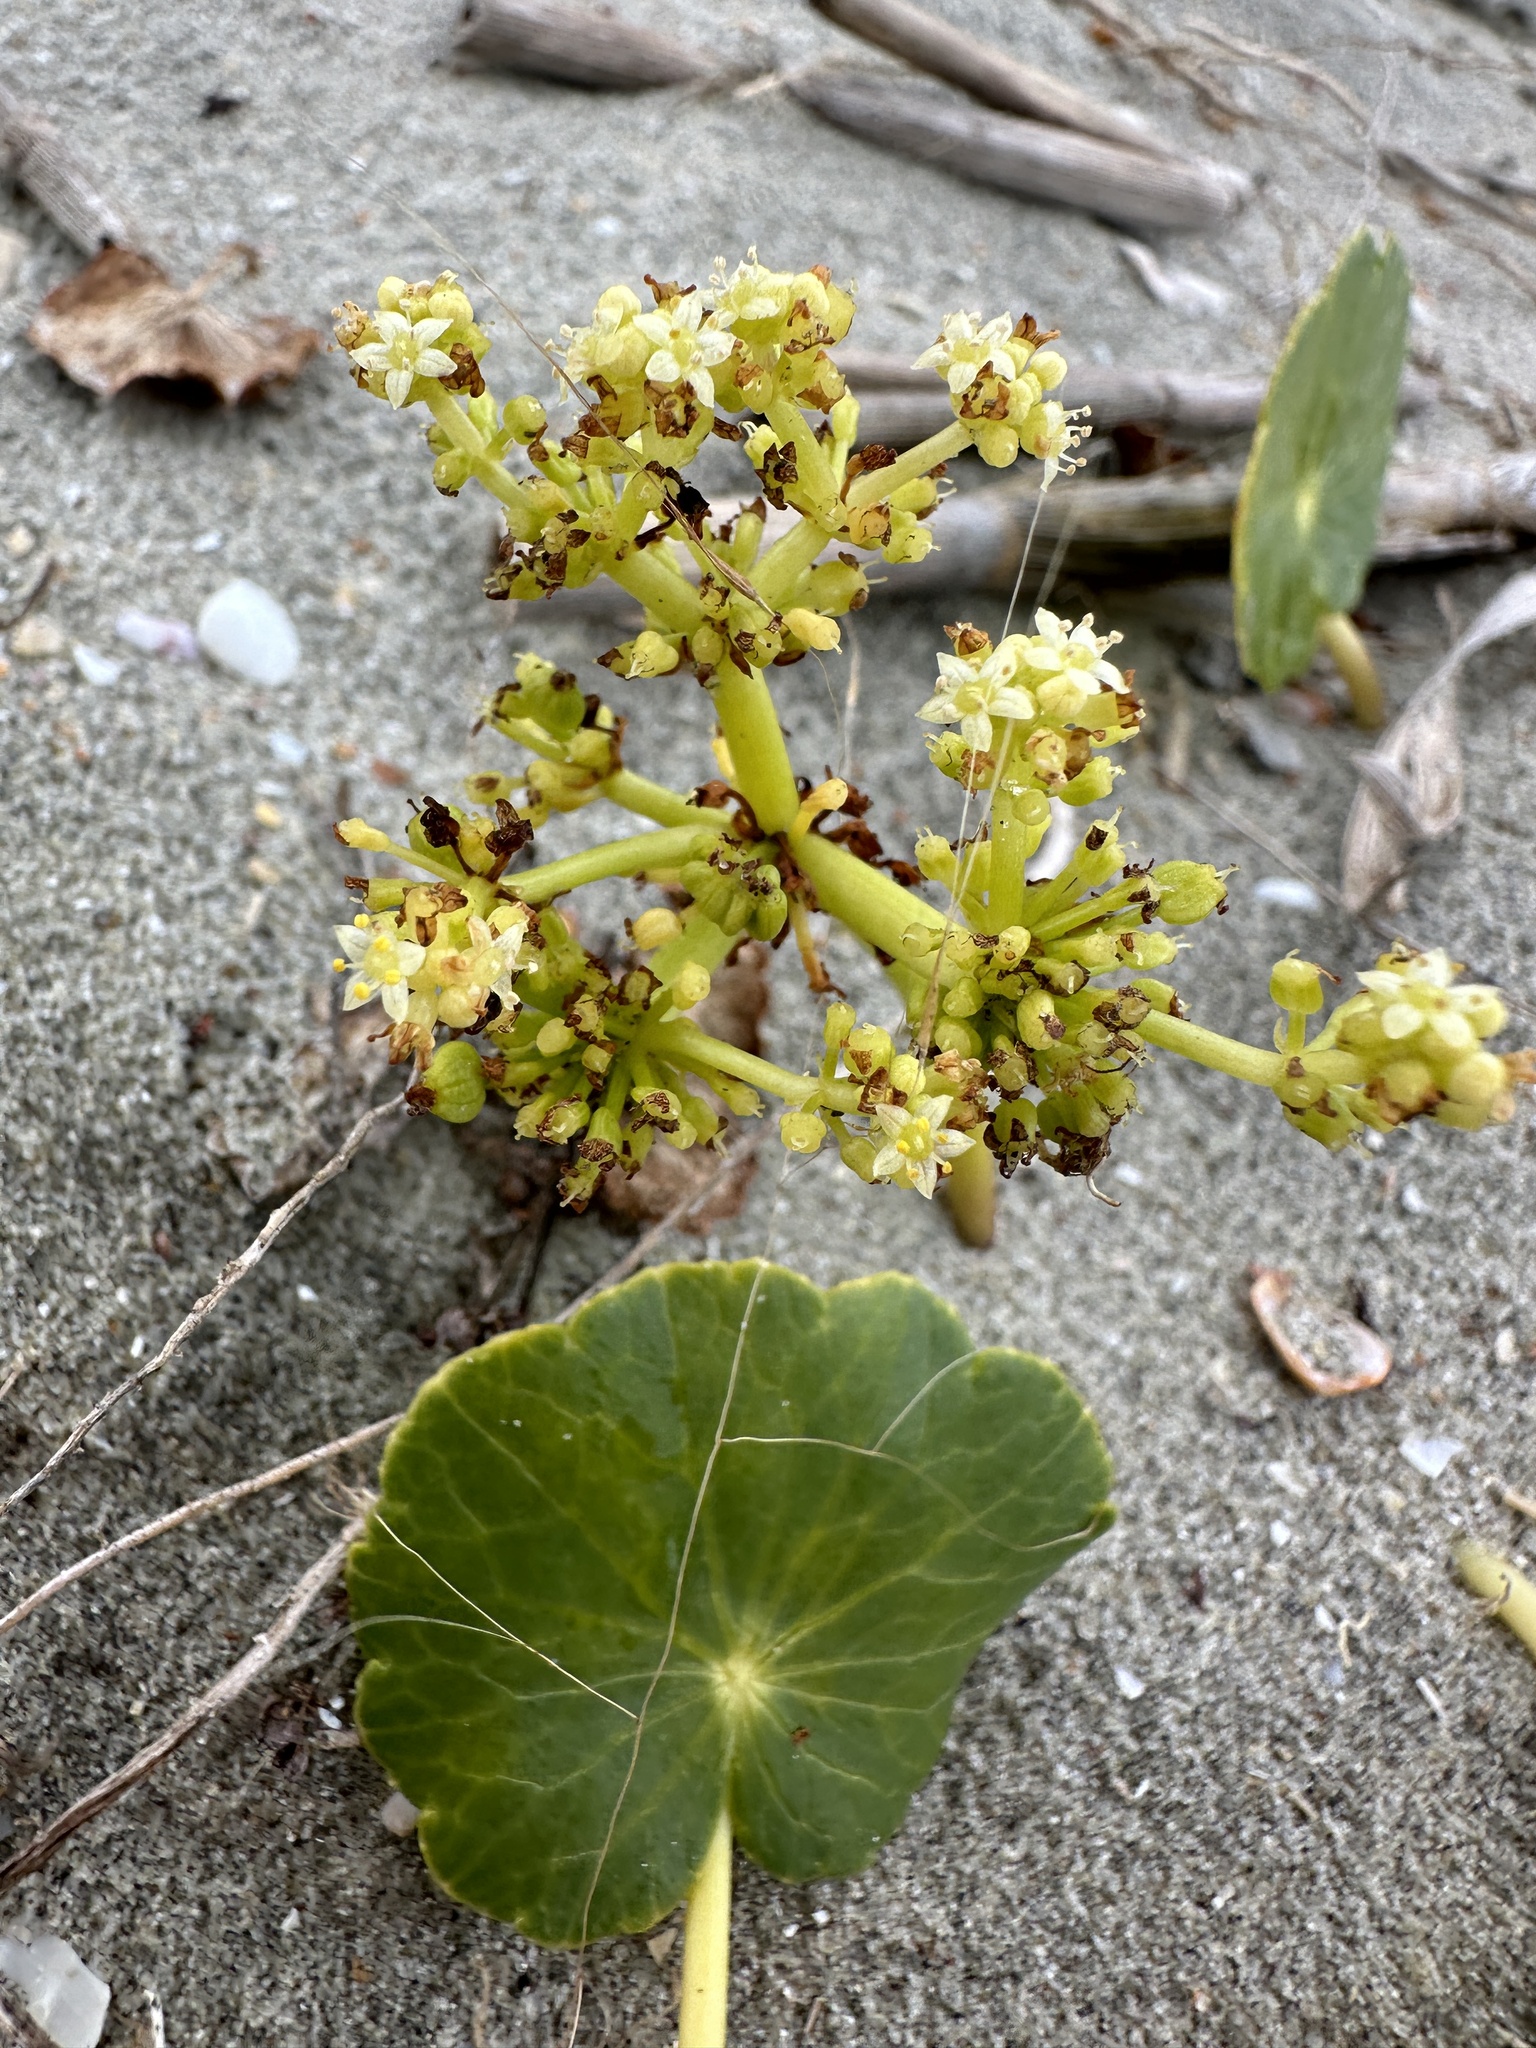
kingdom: Plantae
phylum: Tracheophyta
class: Magnoliopsida
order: Apiales
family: Araliaceae
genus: Hydrocotyle
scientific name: Hydrocotyle bonariensis
